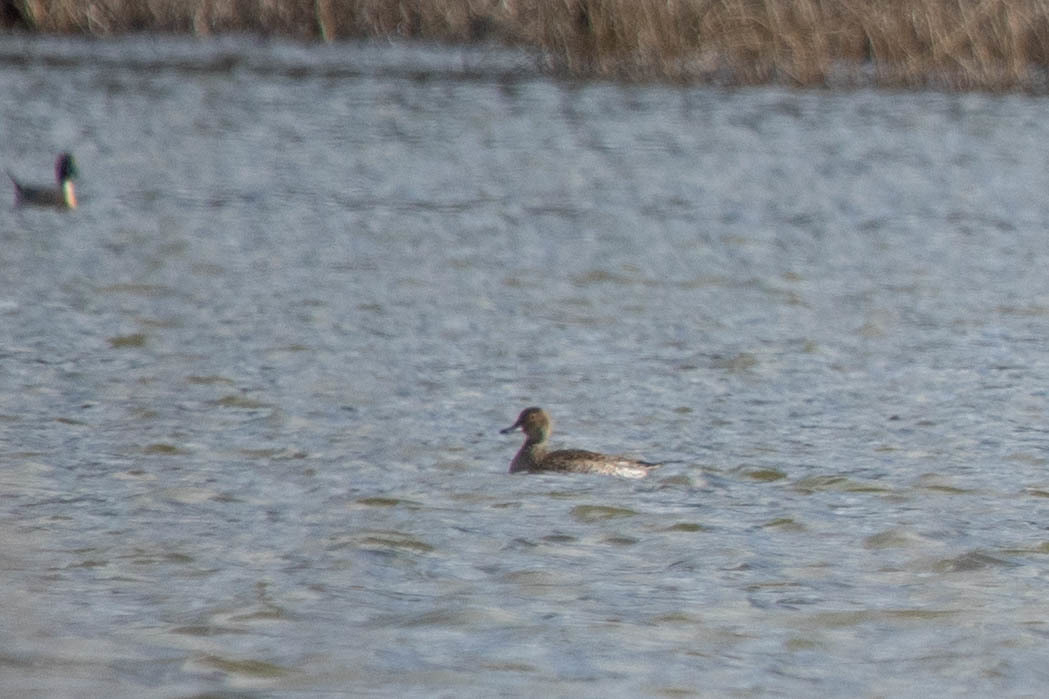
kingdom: Animalia
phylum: Chordata
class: Aves
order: Anseriformes
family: Anatidae
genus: Anas
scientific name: Anas acuta
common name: Northern pintail
